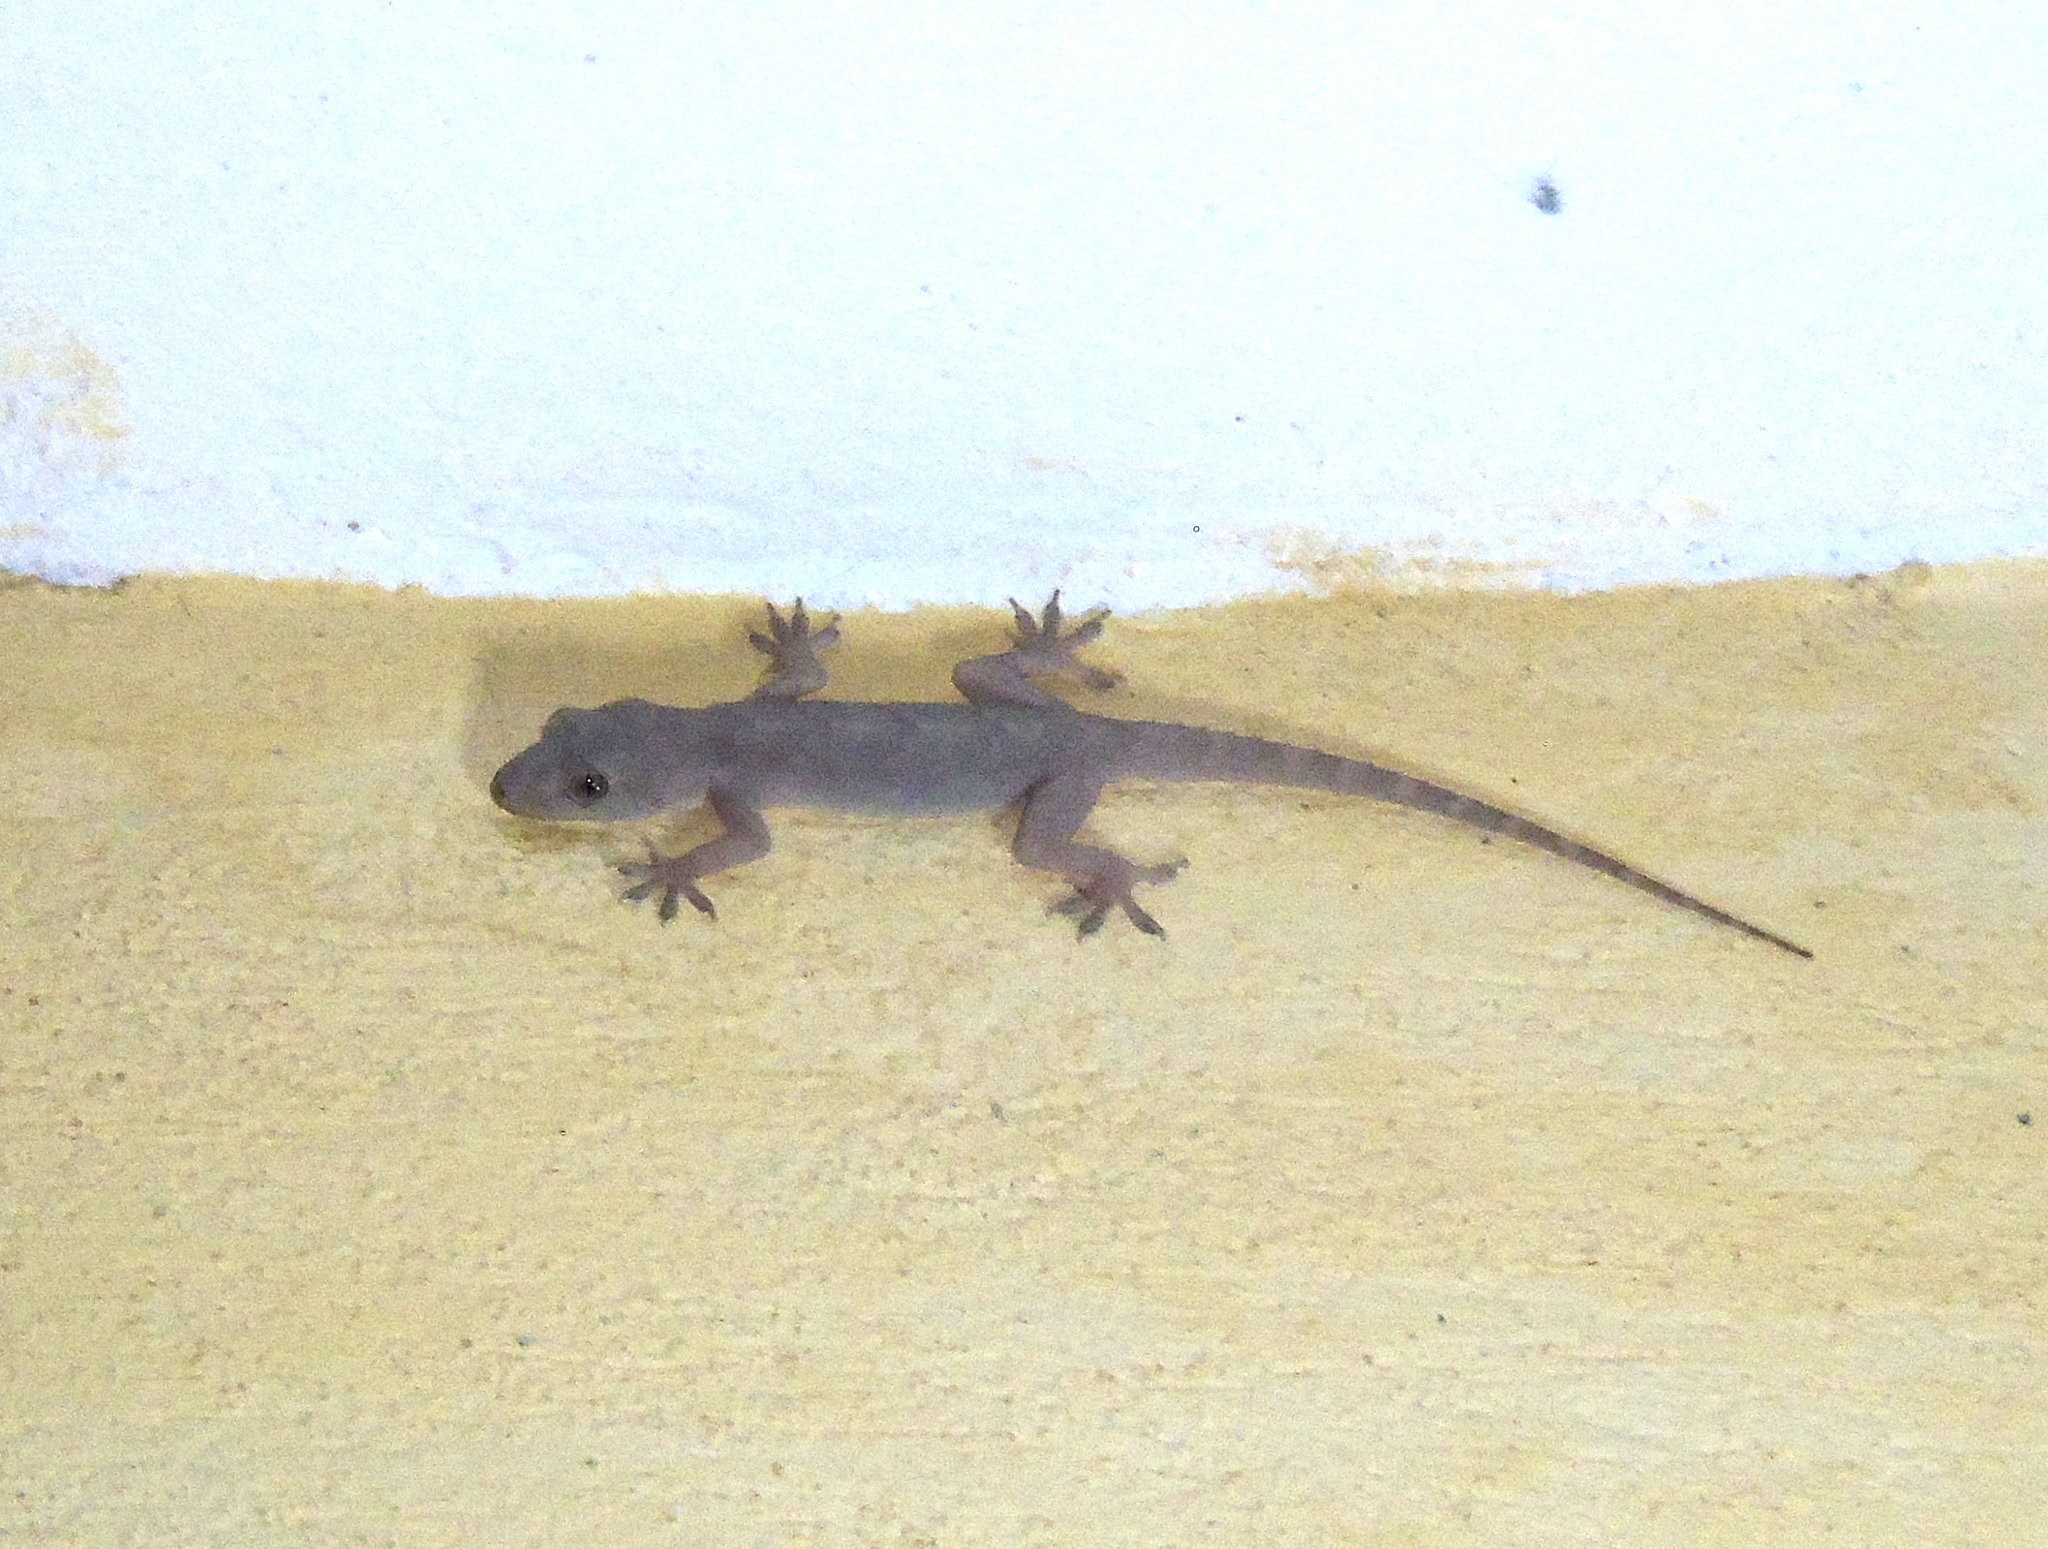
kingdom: Animalia
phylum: Chordata
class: Squamata
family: Gekkonidae
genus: Hemidactylus
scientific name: Hemidactylus flaviviridis
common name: Northern house gecko
